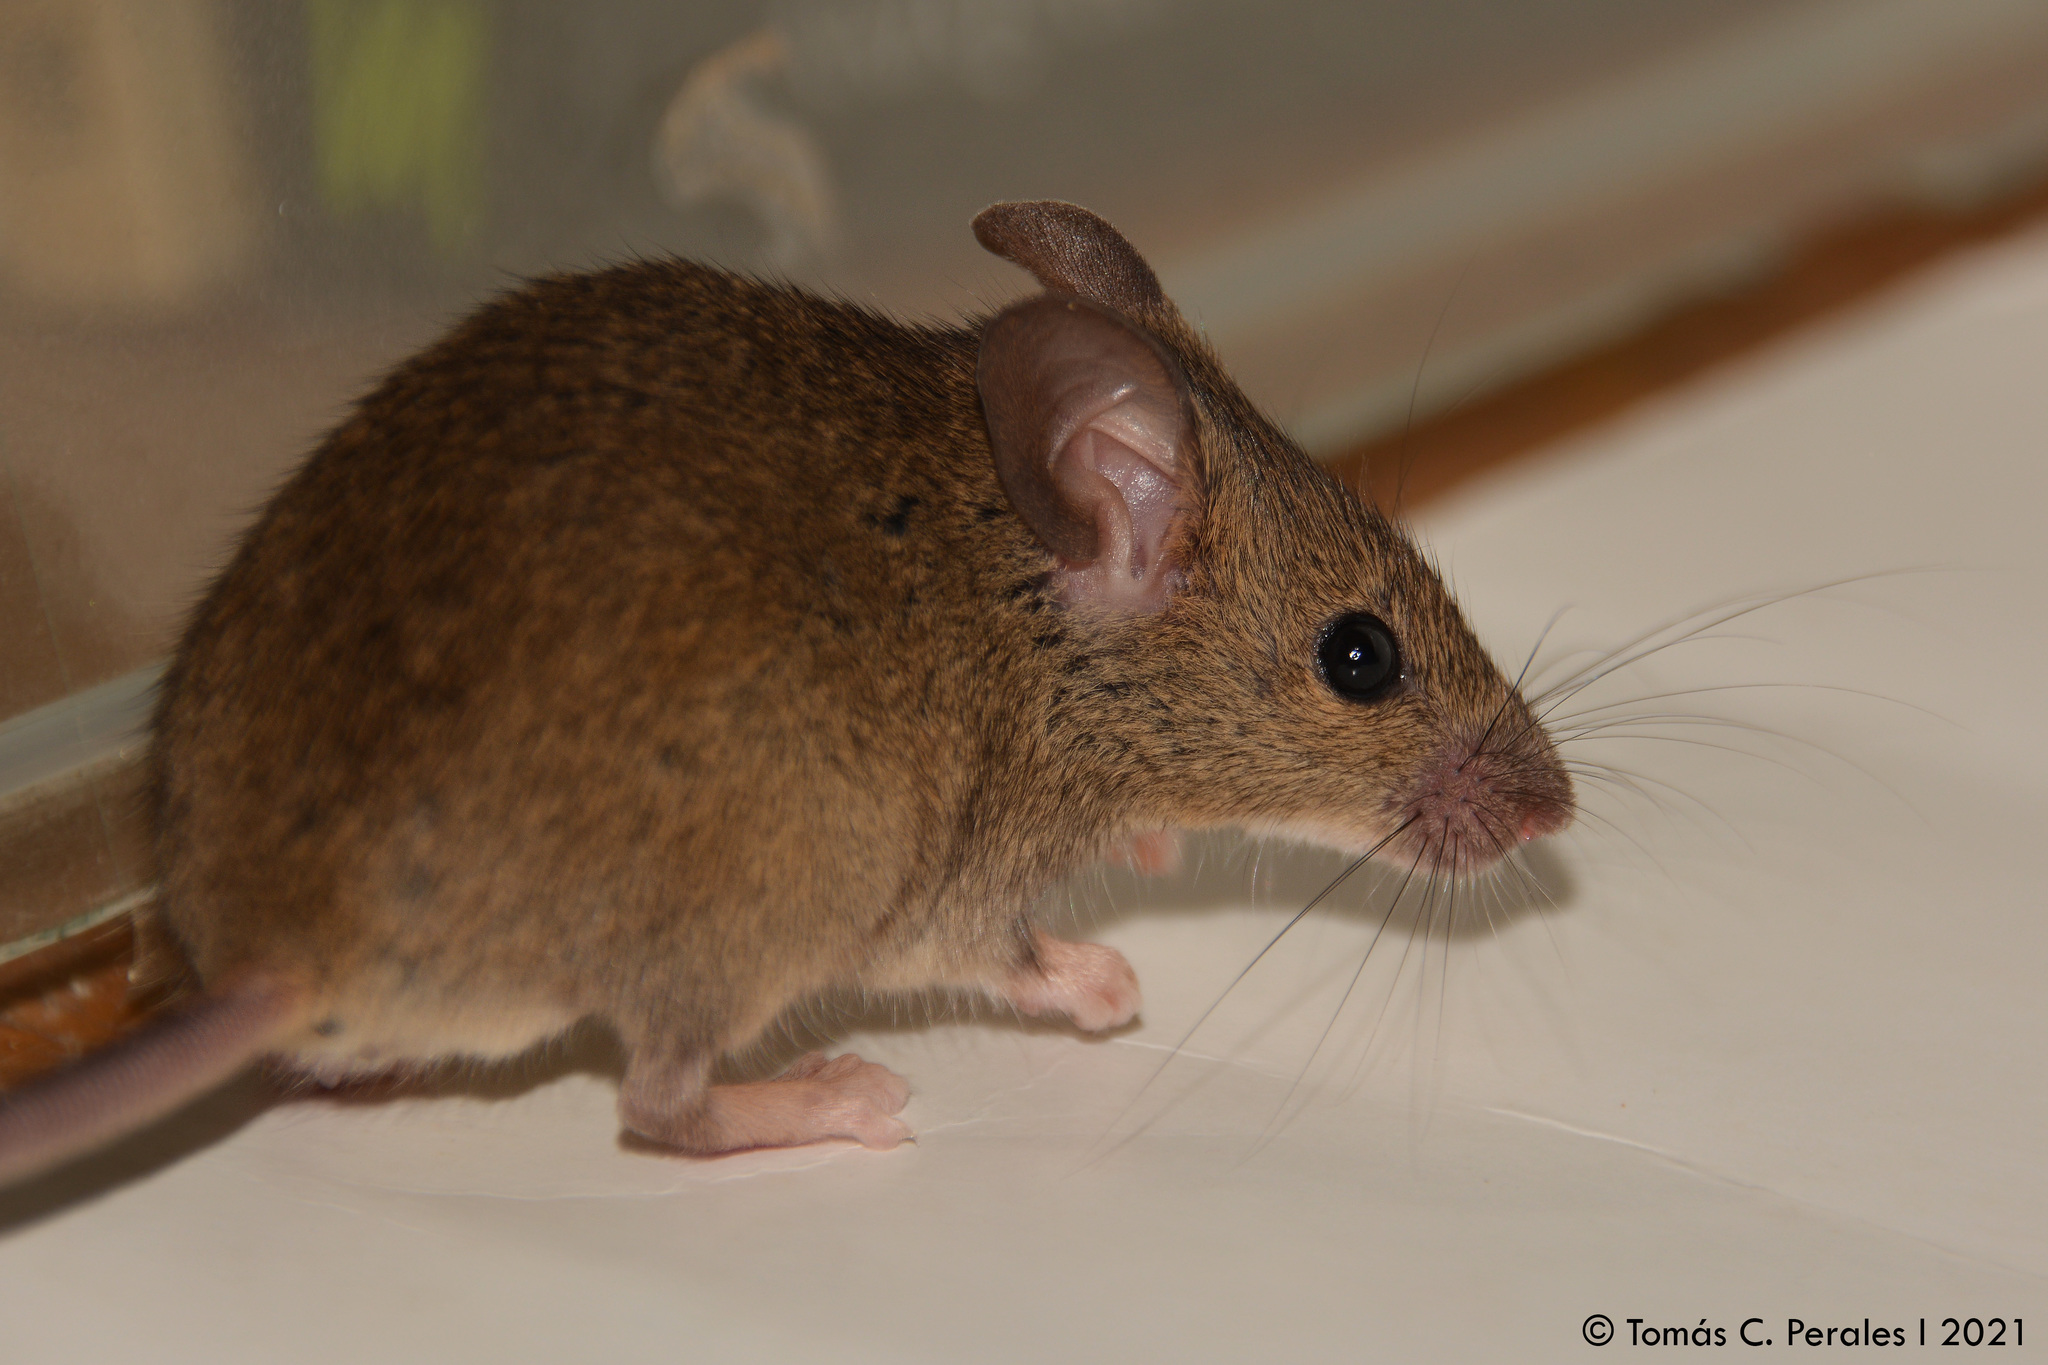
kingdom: Animalia
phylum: Chordata
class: Mammalia
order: Rodentia
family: Muridae
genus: Mus
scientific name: Mus musculus
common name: House mouse
